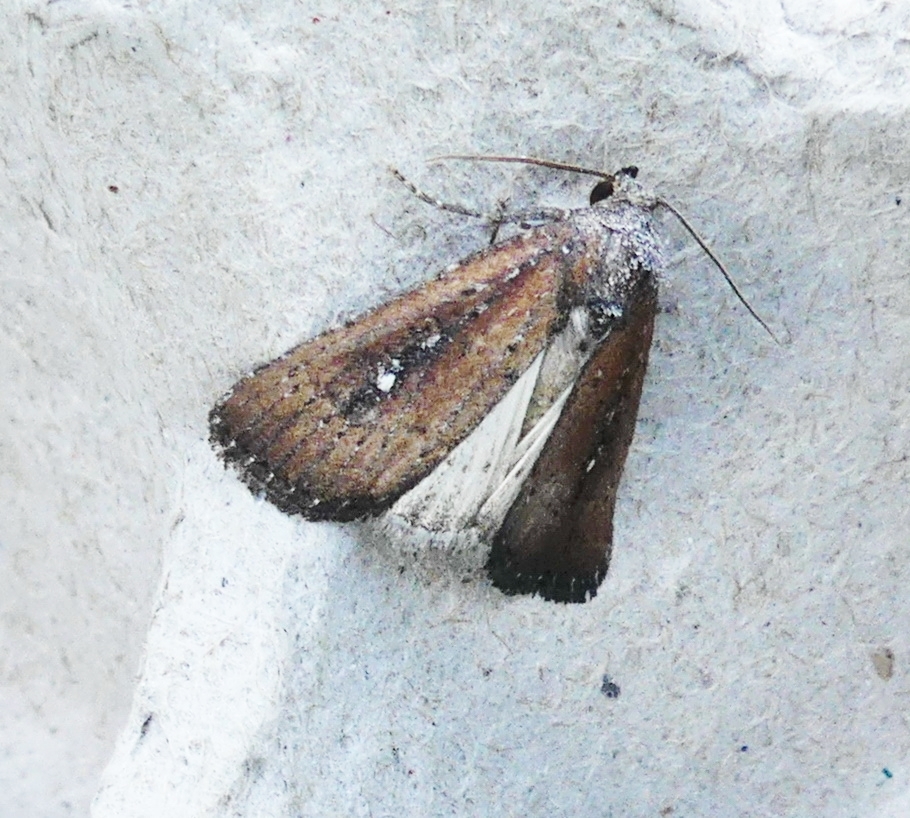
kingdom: Animalia
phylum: Arthropoda
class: Insecta
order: Lepidoptera
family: Noctuidae
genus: Condica
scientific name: Condica videns
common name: White-dotted groundling
